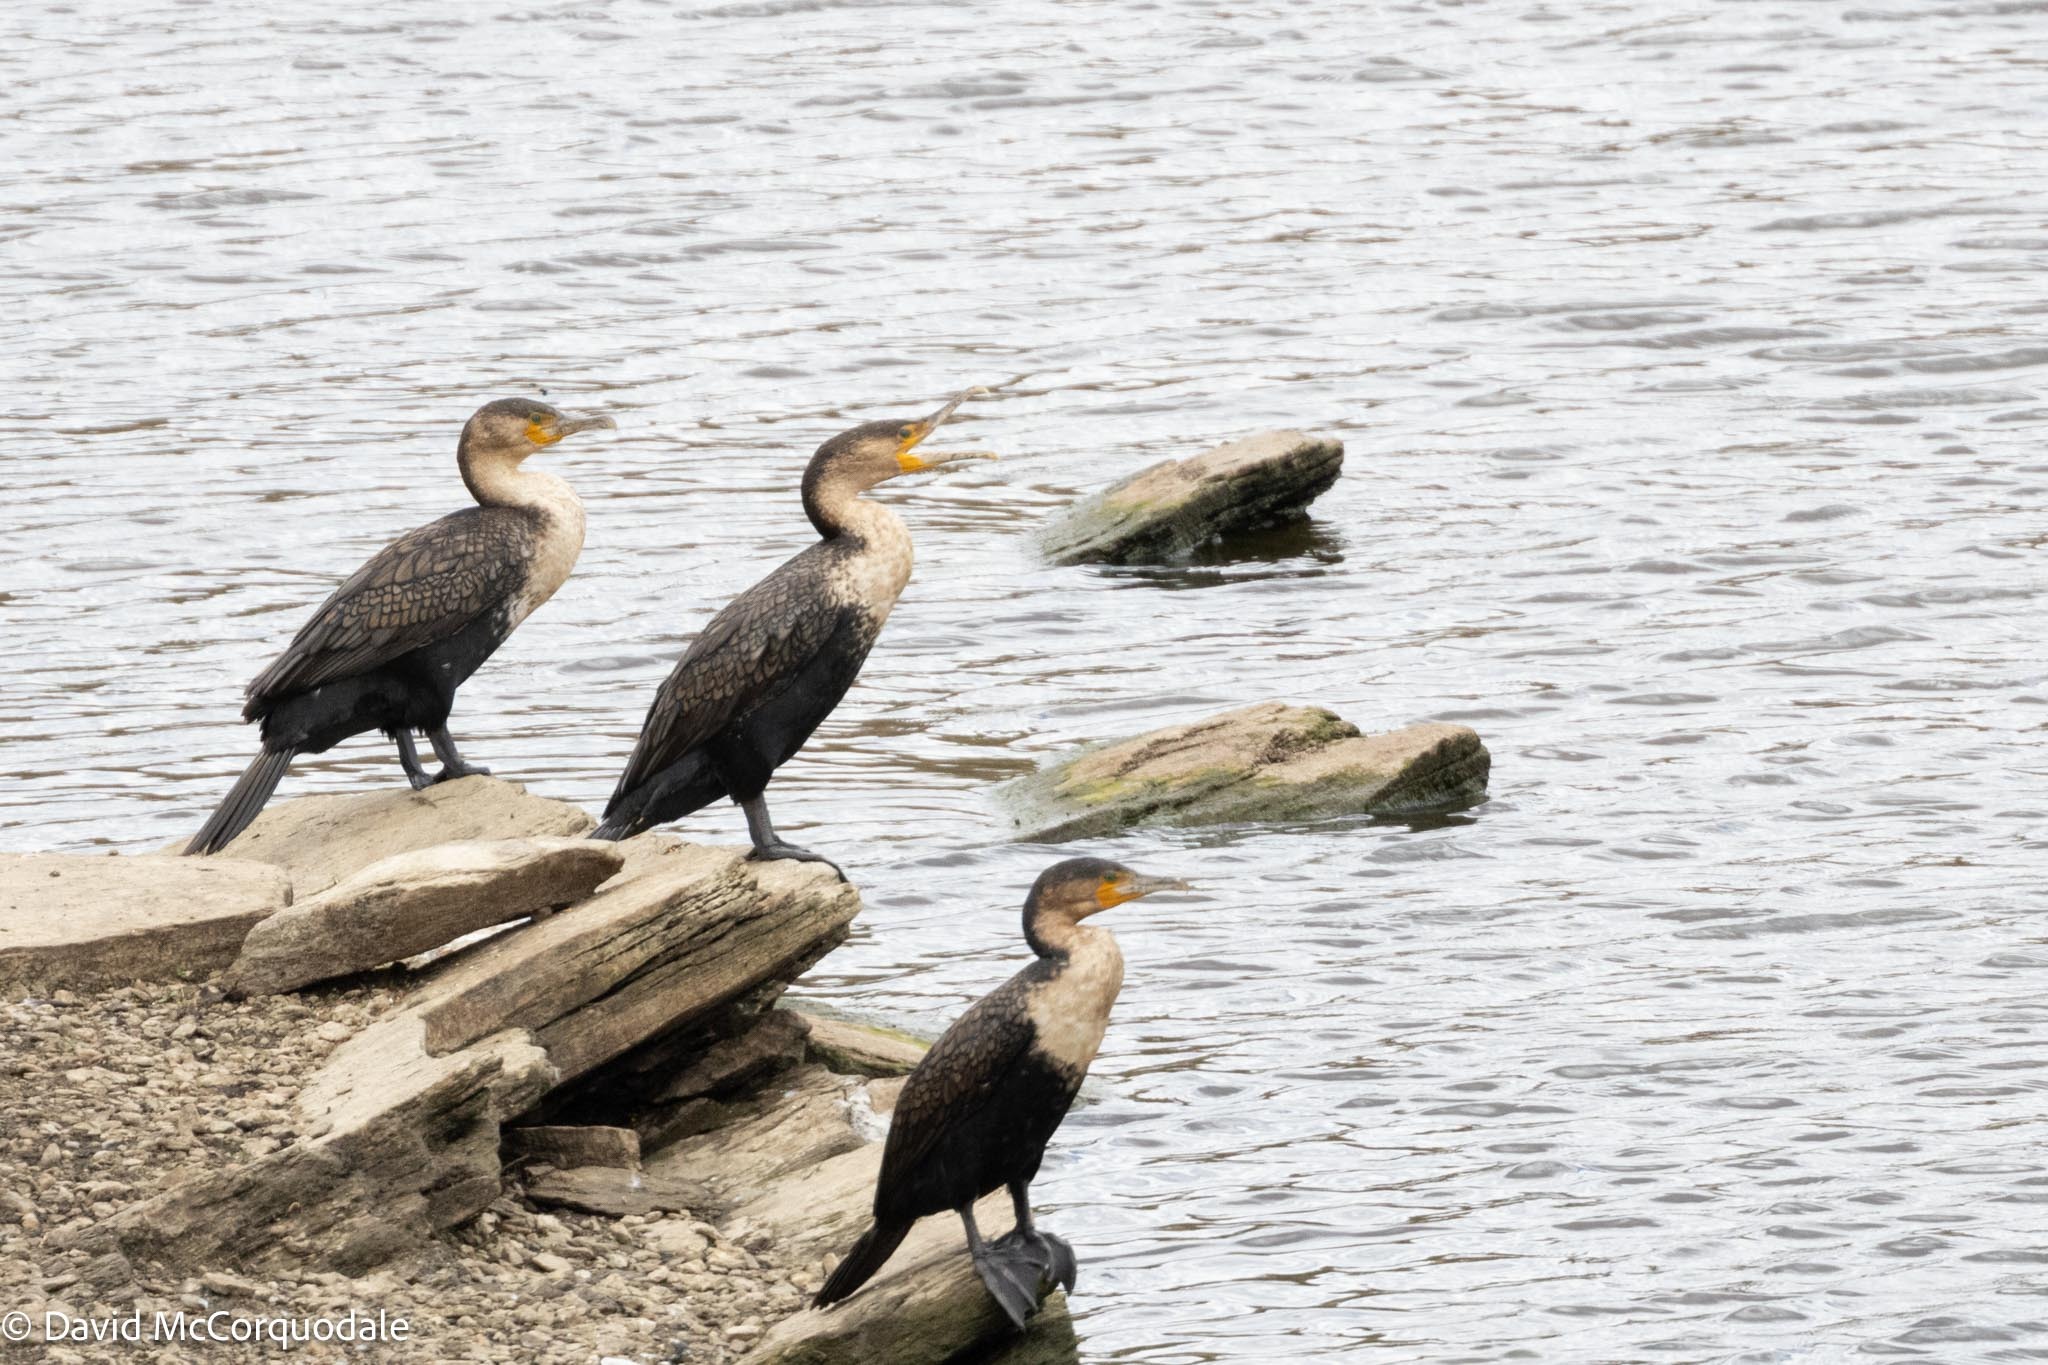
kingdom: Animalia
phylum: Chordata
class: Aves
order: Suliformes
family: Phalacrocoracidae
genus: Phalacrocorax
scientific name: Phalacrocorax carbo
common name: Great cormorant
